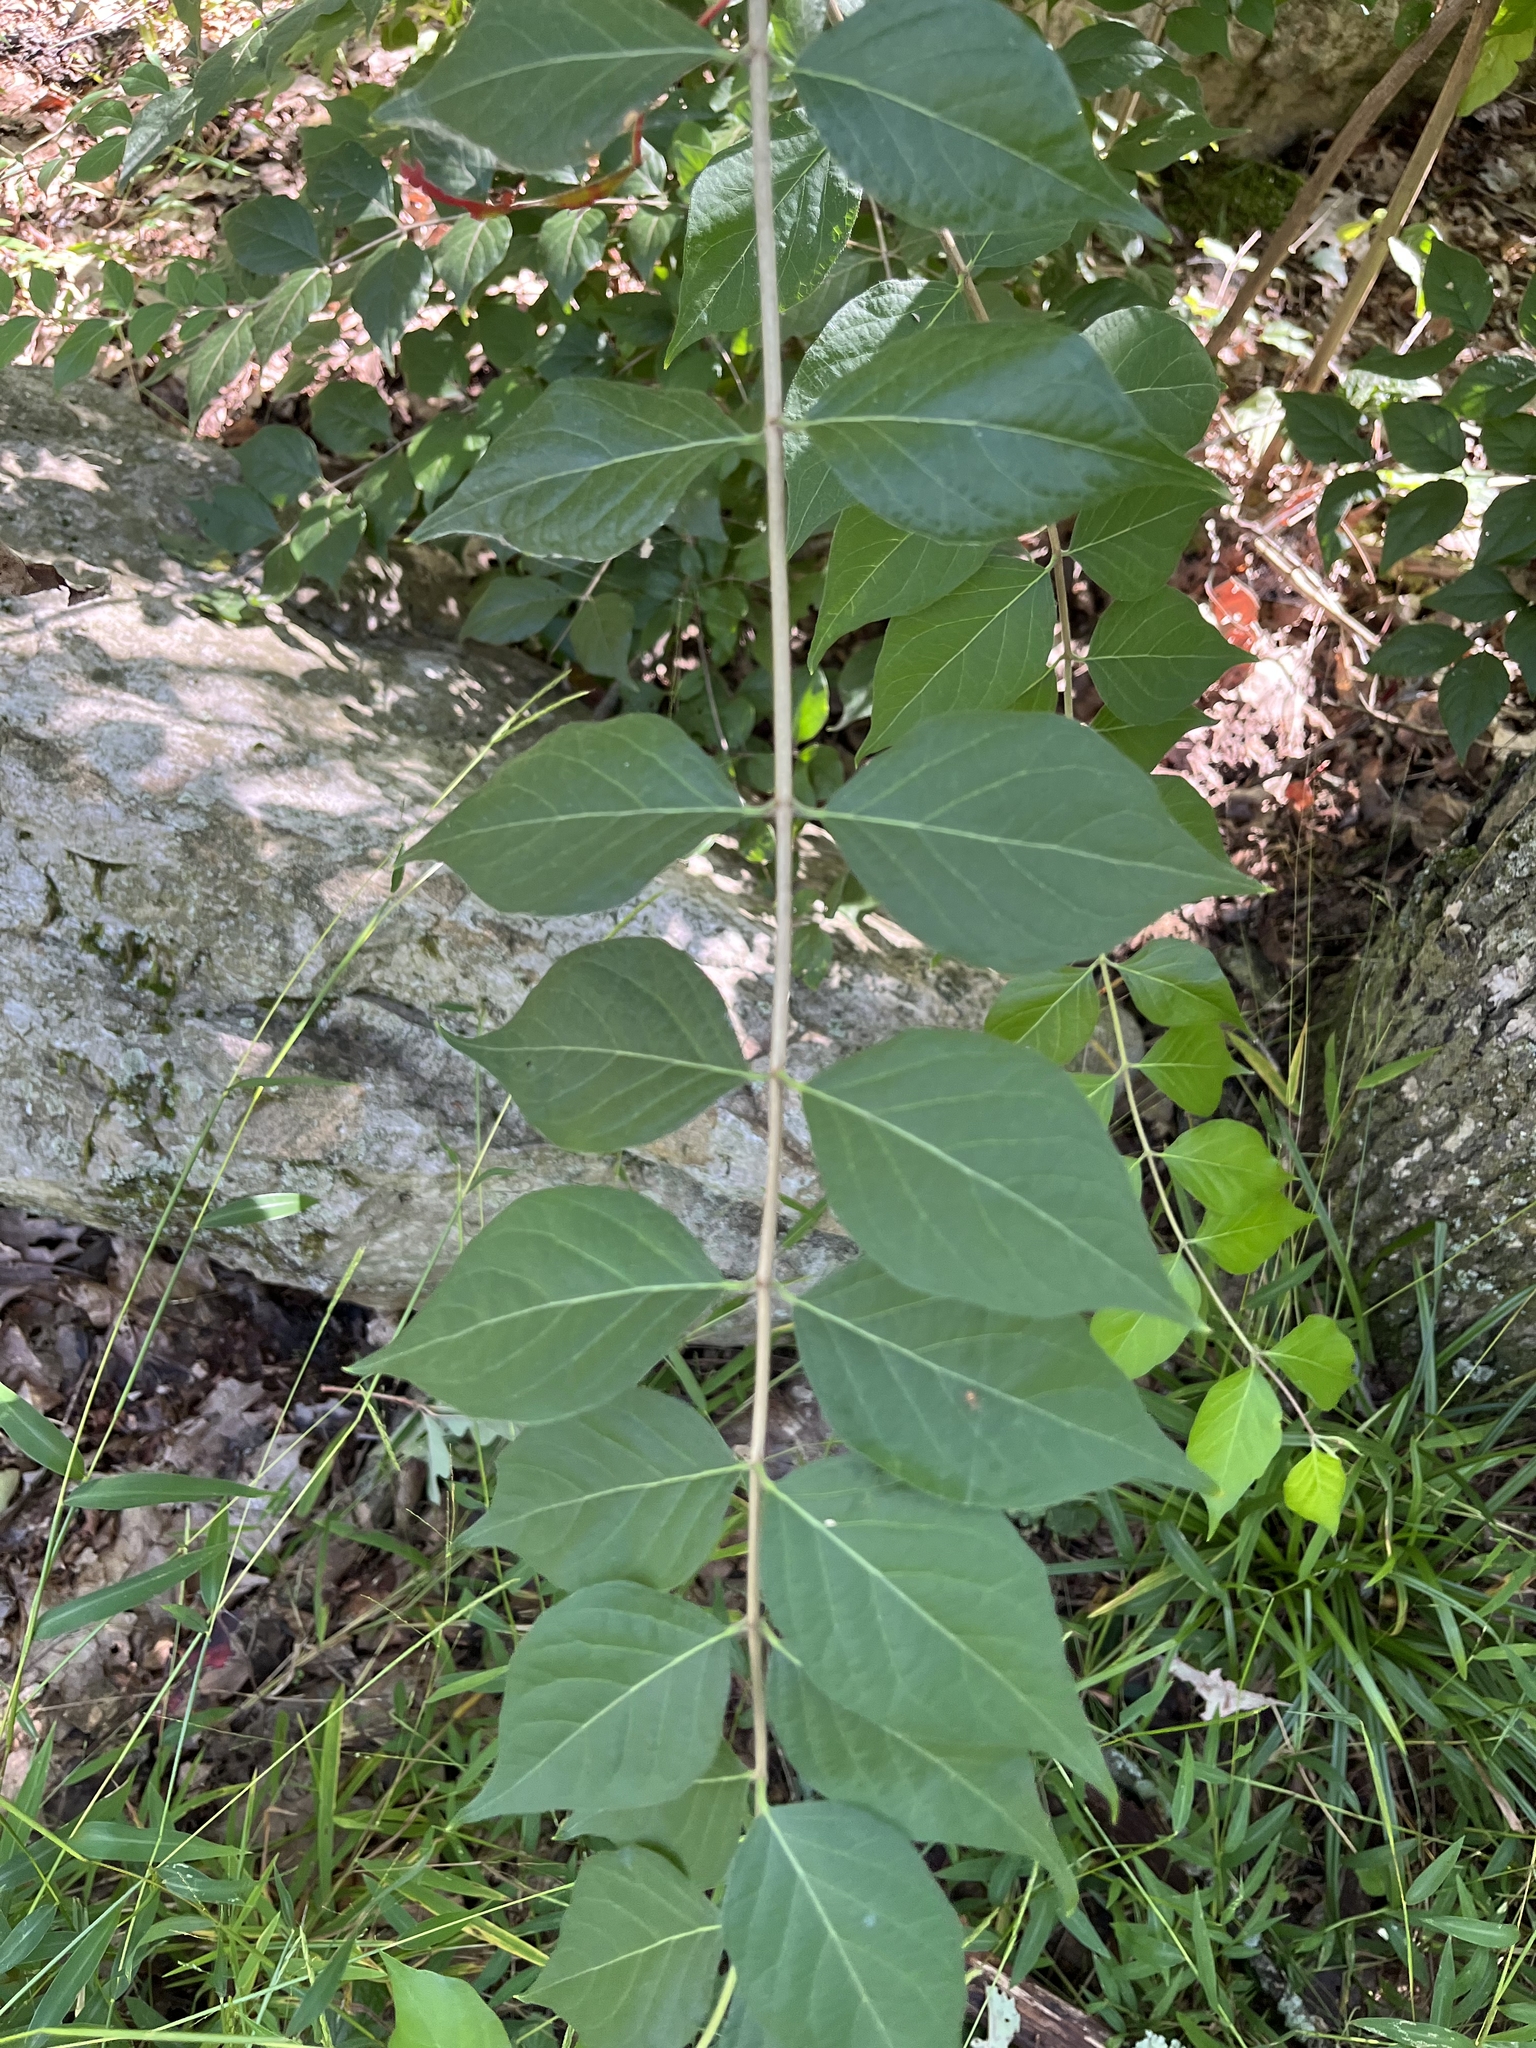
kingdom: Plantae
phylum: Tracheophyta
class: Magnoliopsida
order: Dipsacales
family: Caprifoliaceae
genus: Lonicera
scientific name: Lonicera maackii
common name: Amur honeysuckle
